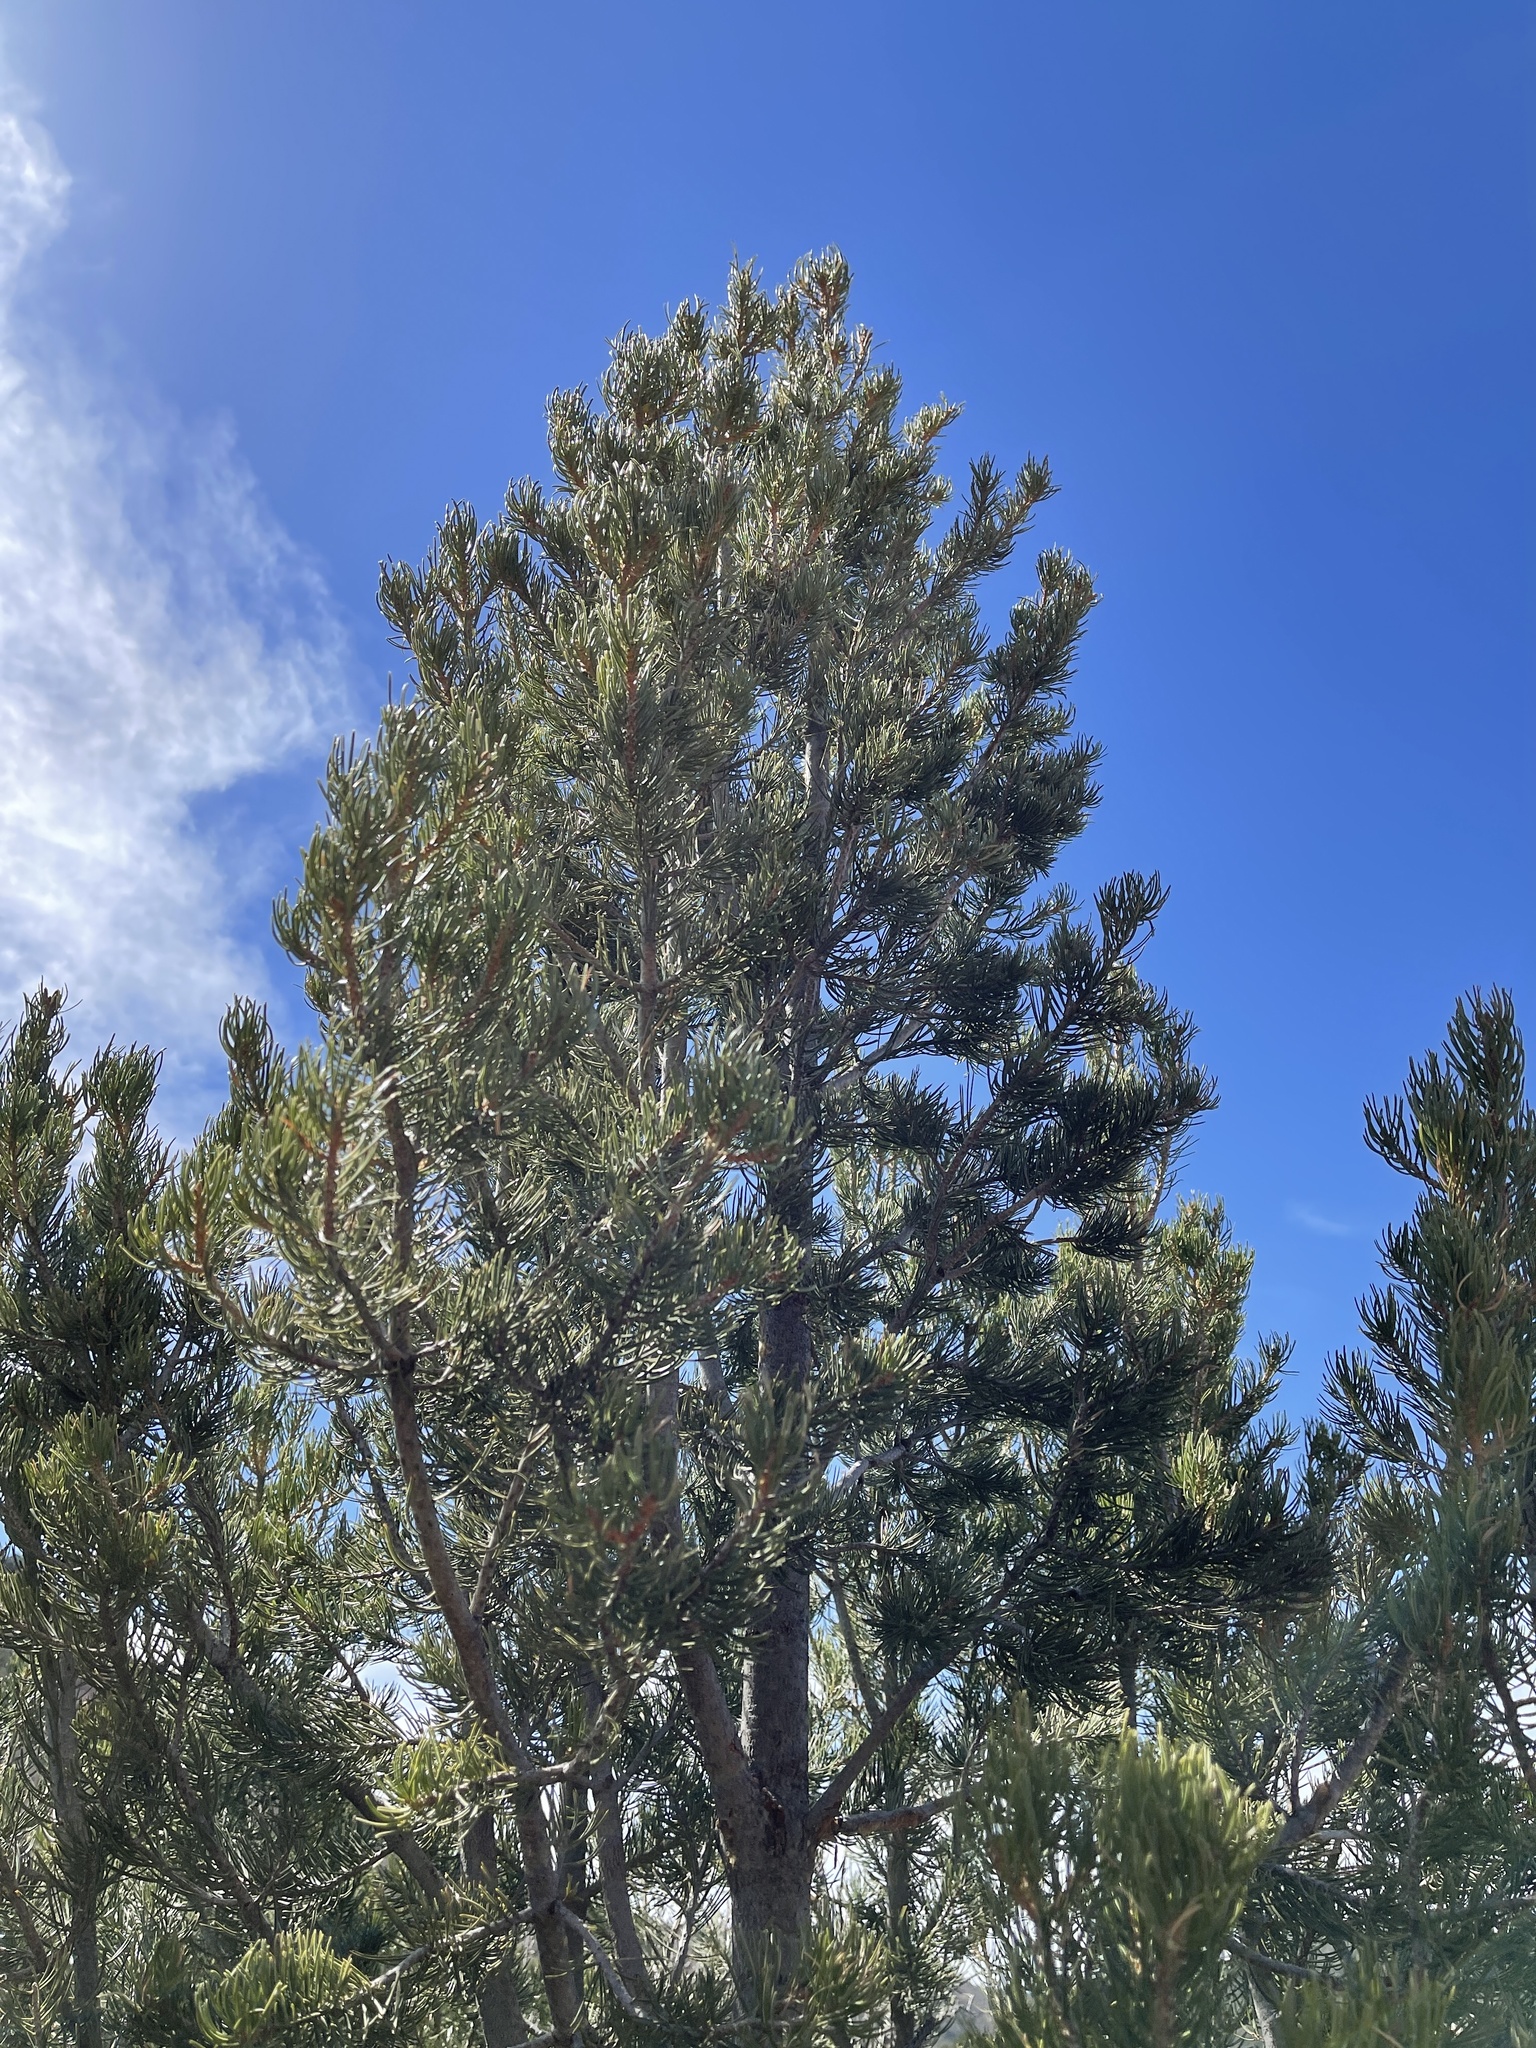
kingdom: Plantae
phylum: Tracheophyta
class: Pinopsida
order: Pinales
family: Pinaceae
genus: Pinus
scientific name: Pinus edulis
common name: Colorado pinyon
